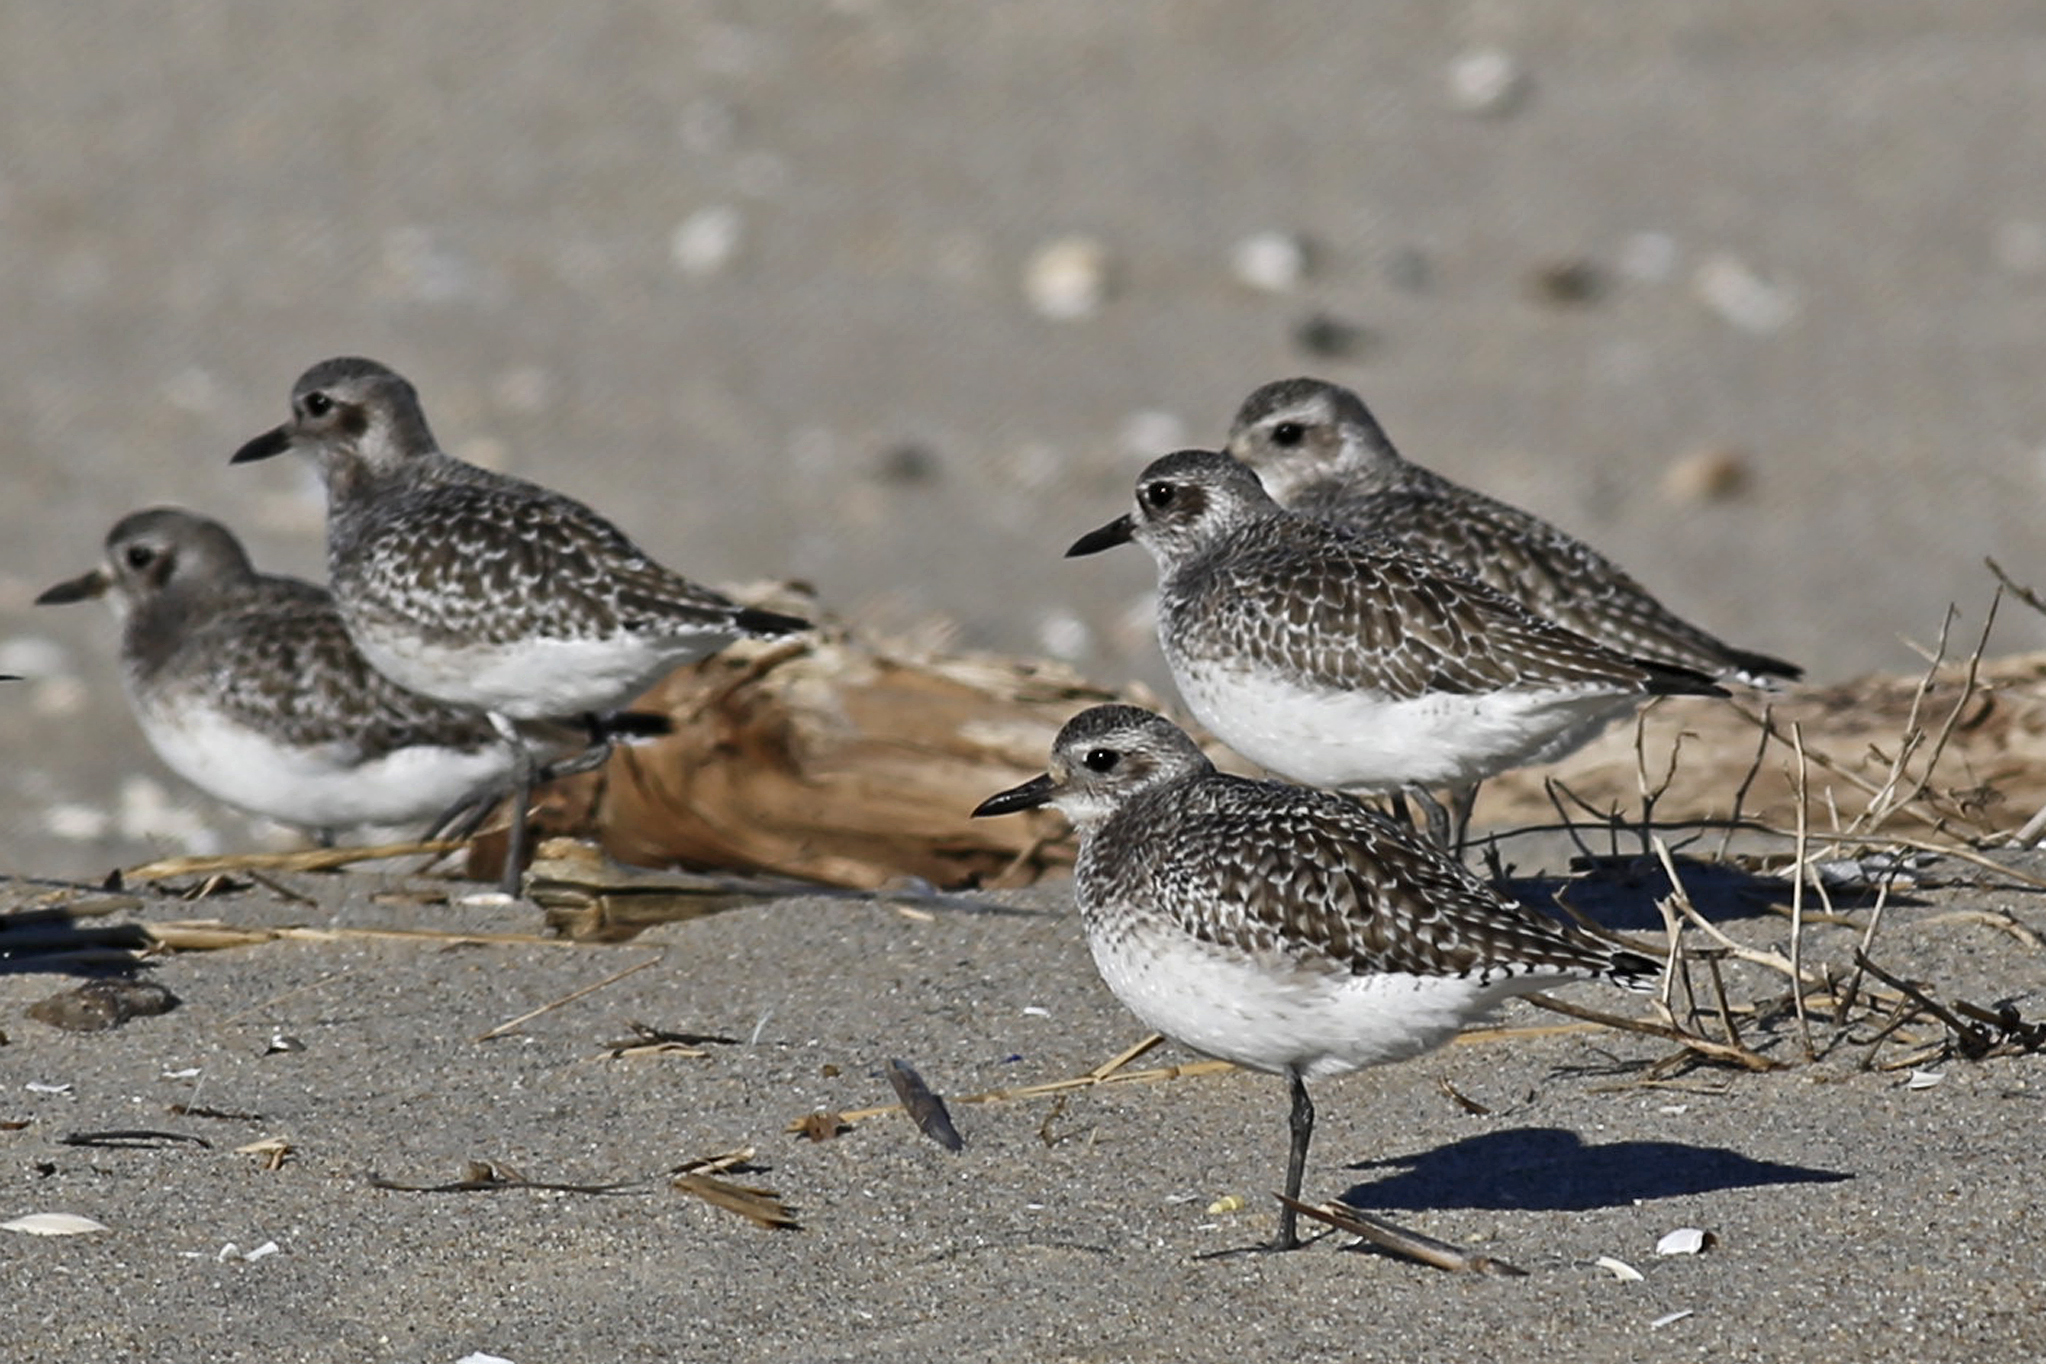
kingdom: Animalia
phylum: Chordata
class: Aves
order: Charadriiformes
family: Charadriidae
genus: Pluvialis
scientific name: Pluvialis squatarola
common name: Grey plover
